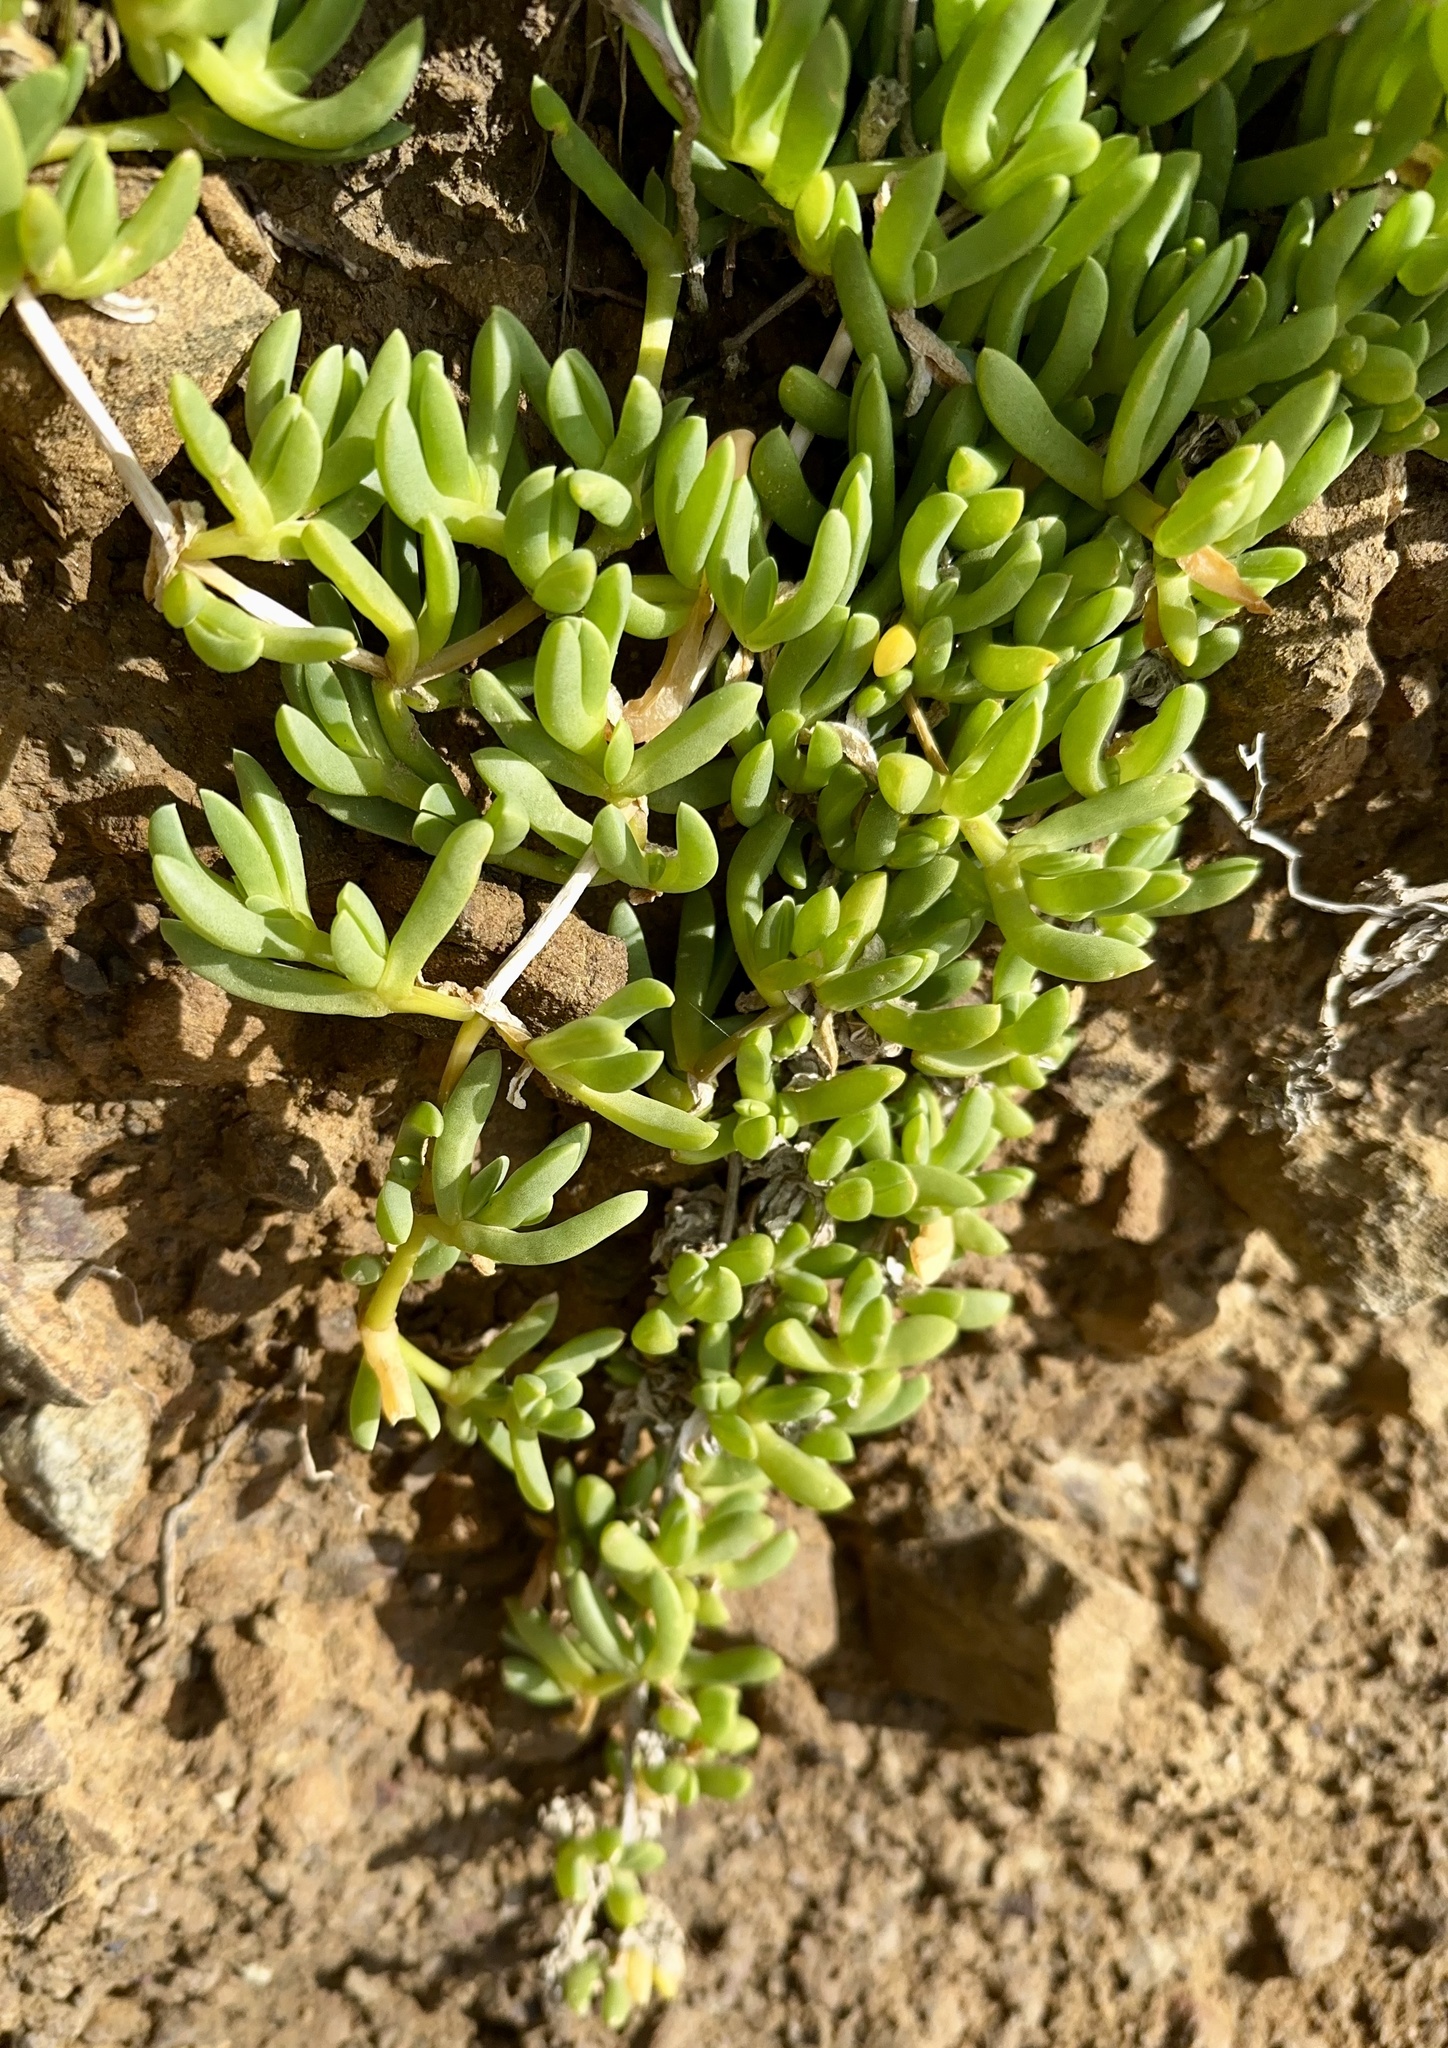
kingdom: Plantae
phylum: Tracheophyta
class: Magnoliopsida
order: Caryophyllales
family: Aizoaceae
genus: Disphyma
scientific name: Disphyma australe
